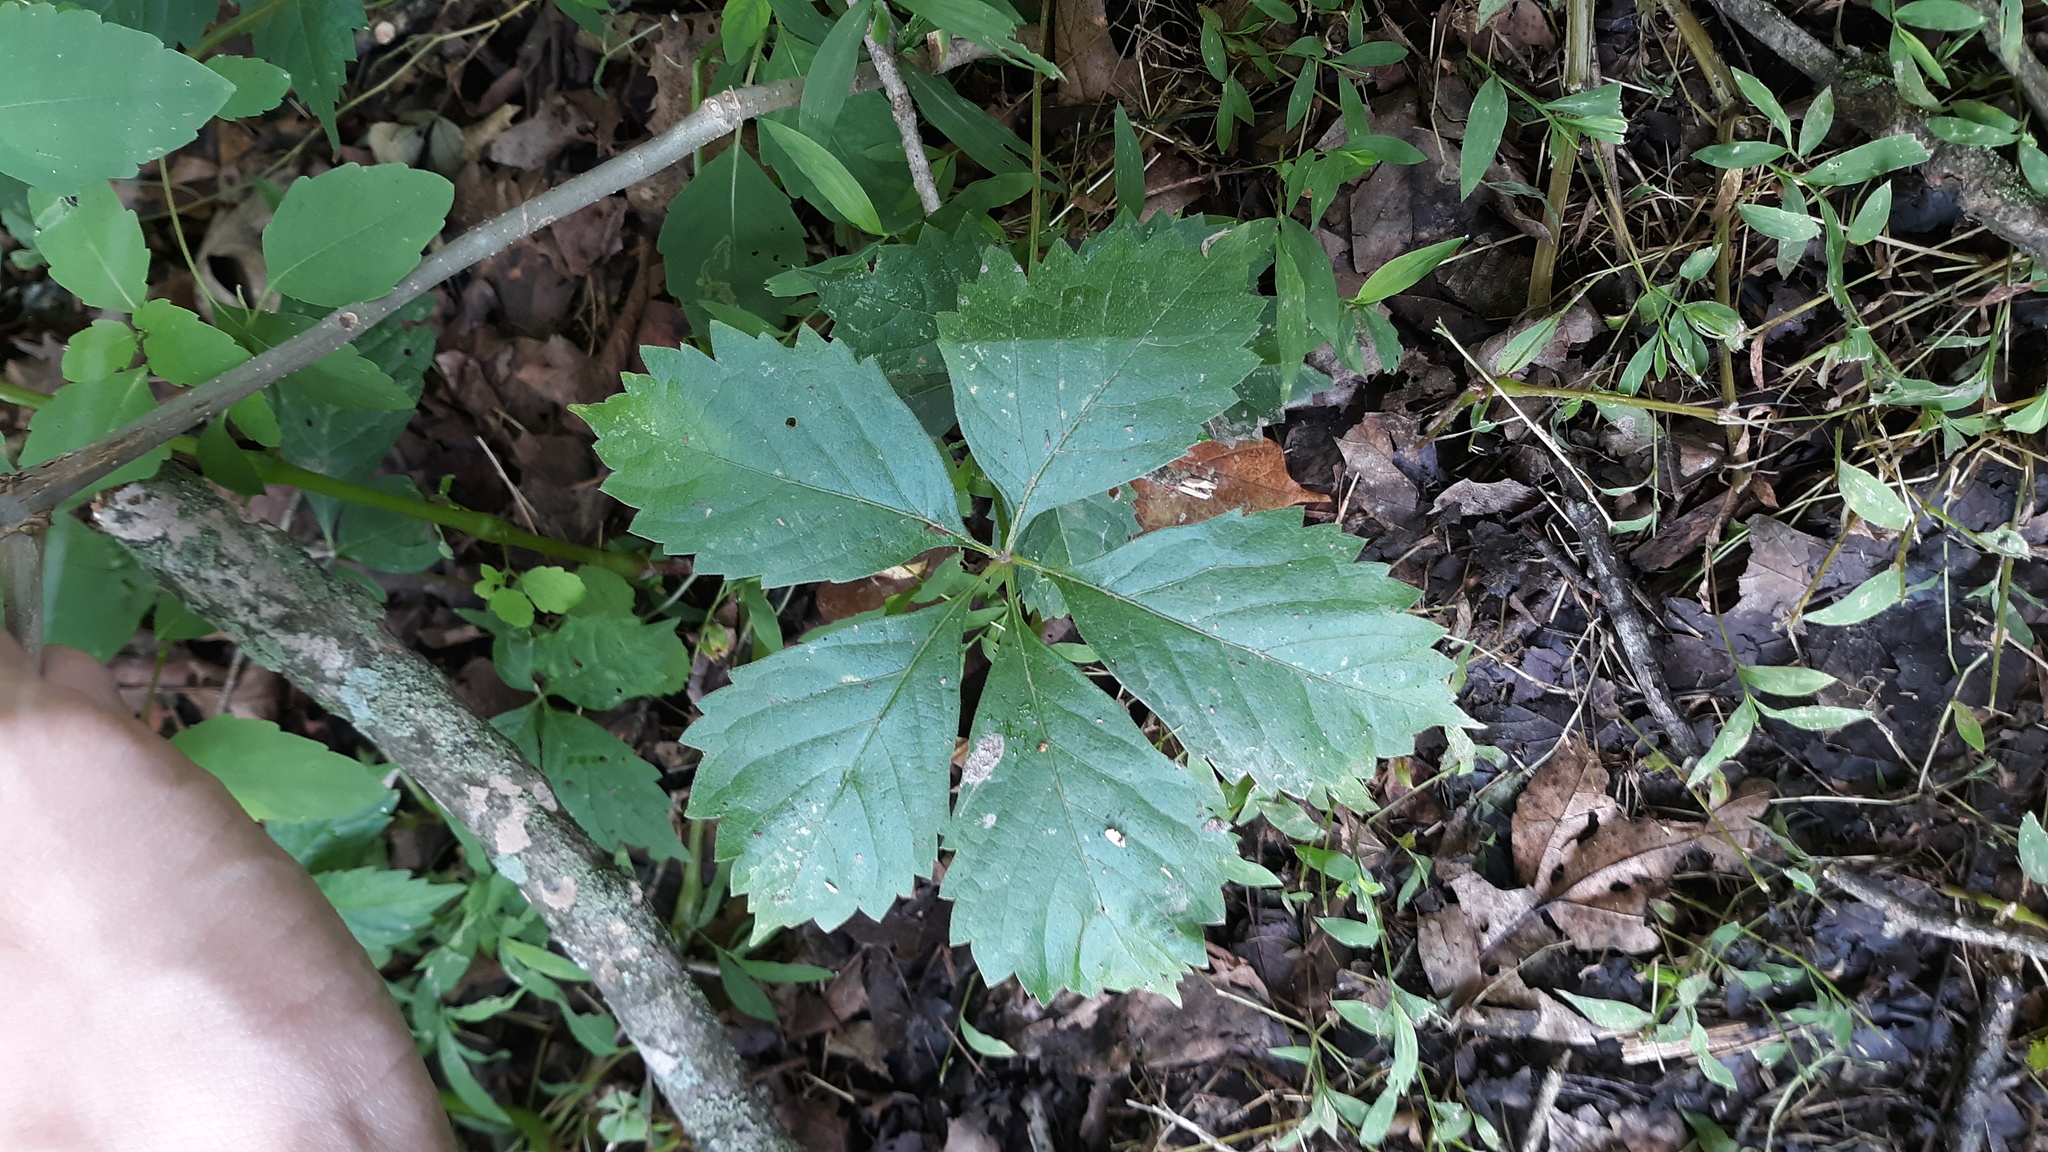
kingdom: Plantae
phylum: Tracheophyta
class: Magnoliopsida
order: Vitales
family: Vitaceae
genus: Parthenocissus
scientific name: Parthenocissus quinquefolia
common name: Virginia-creeper
